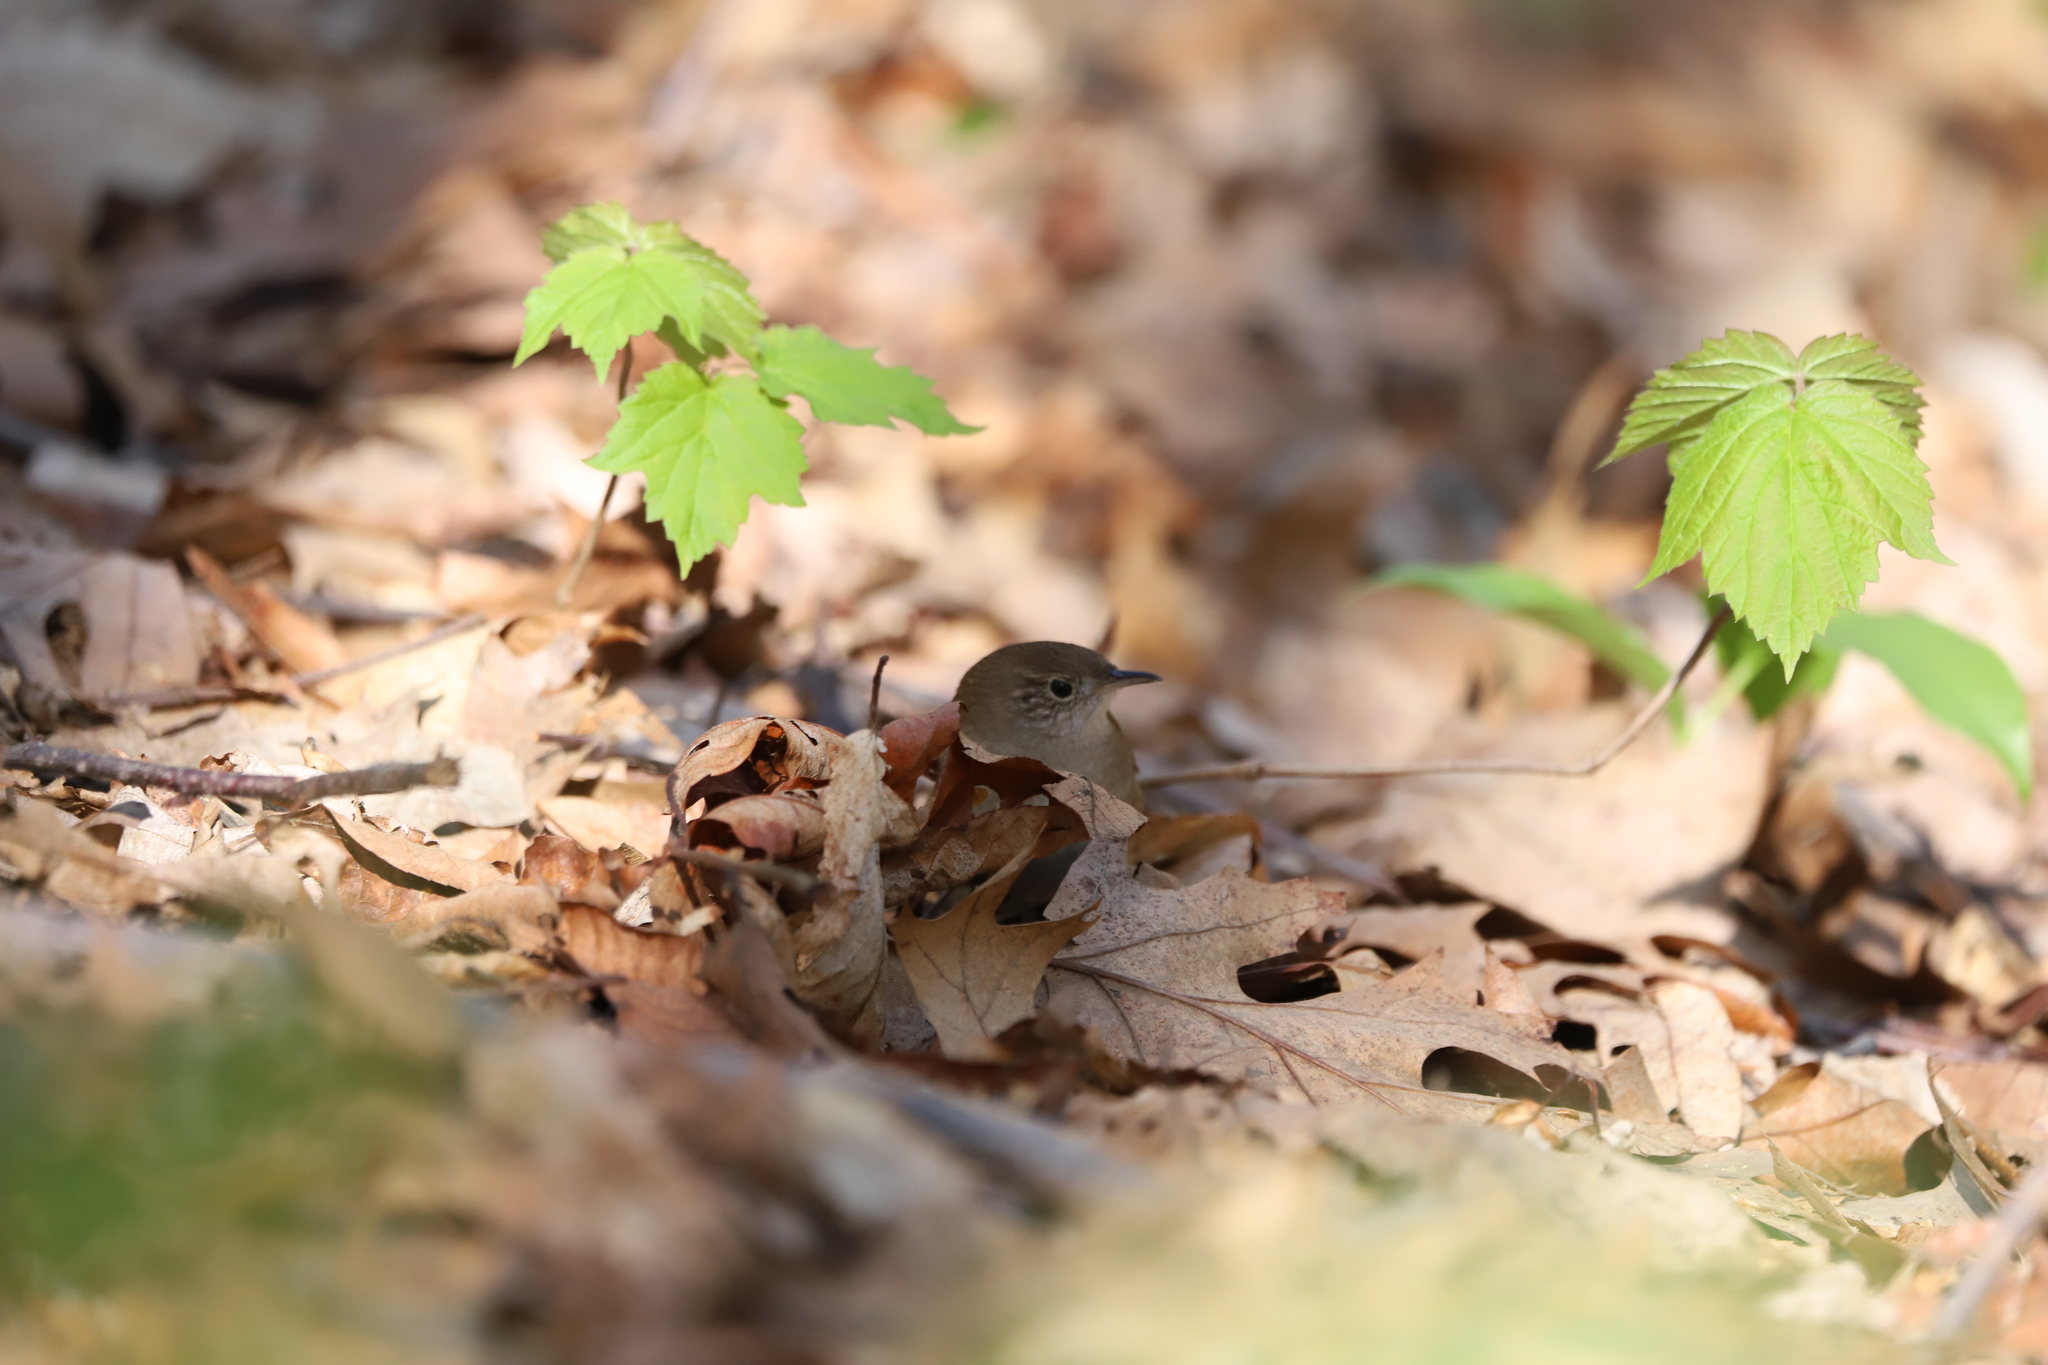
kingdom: Animalia
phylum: Chordata
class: Aves
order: Passeriformes
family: Troglodytidae
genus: Troglodytes
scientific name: Troglodytes aedon
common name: House wren
